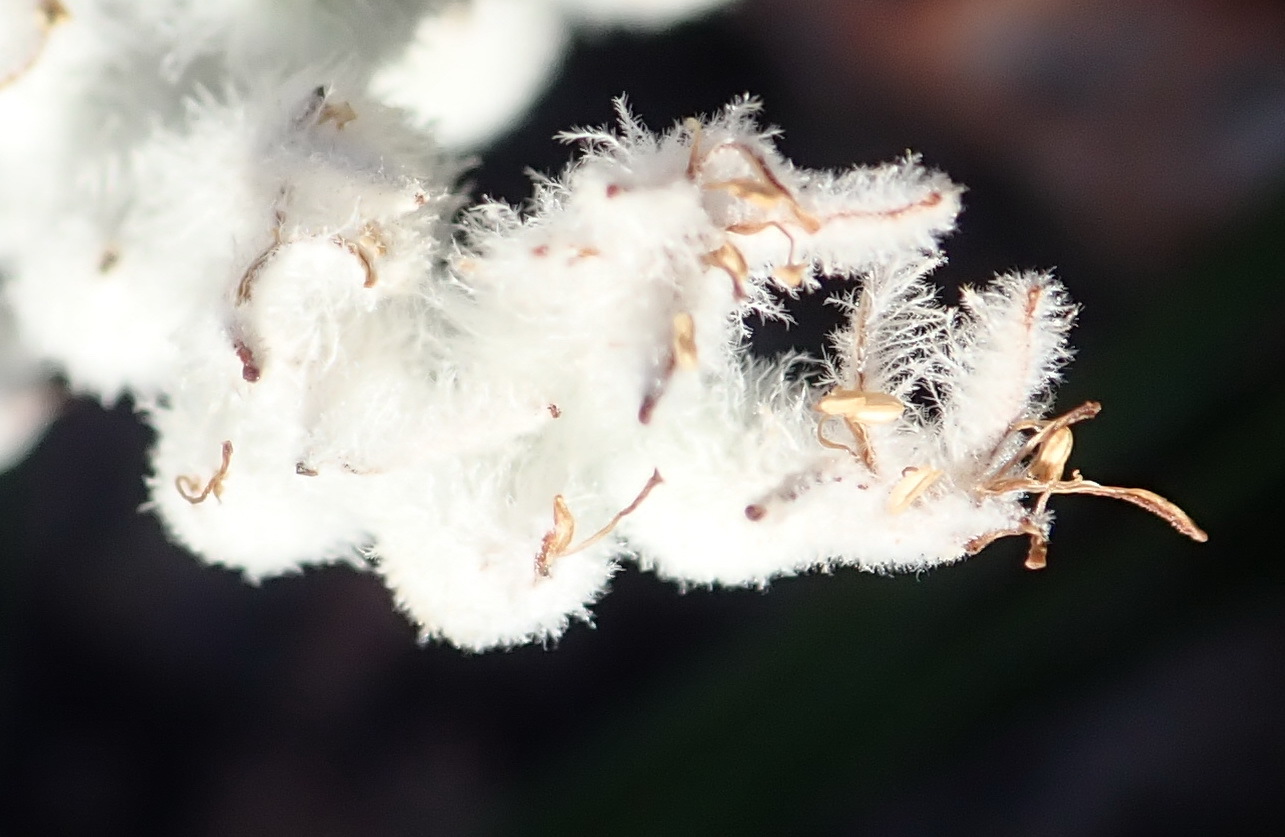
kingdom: Plantae
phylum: Tracheophyta
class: Liliopsida
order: Asparagales
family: Lanariaceae
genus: Lanaria
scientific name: Lanaria lanata
